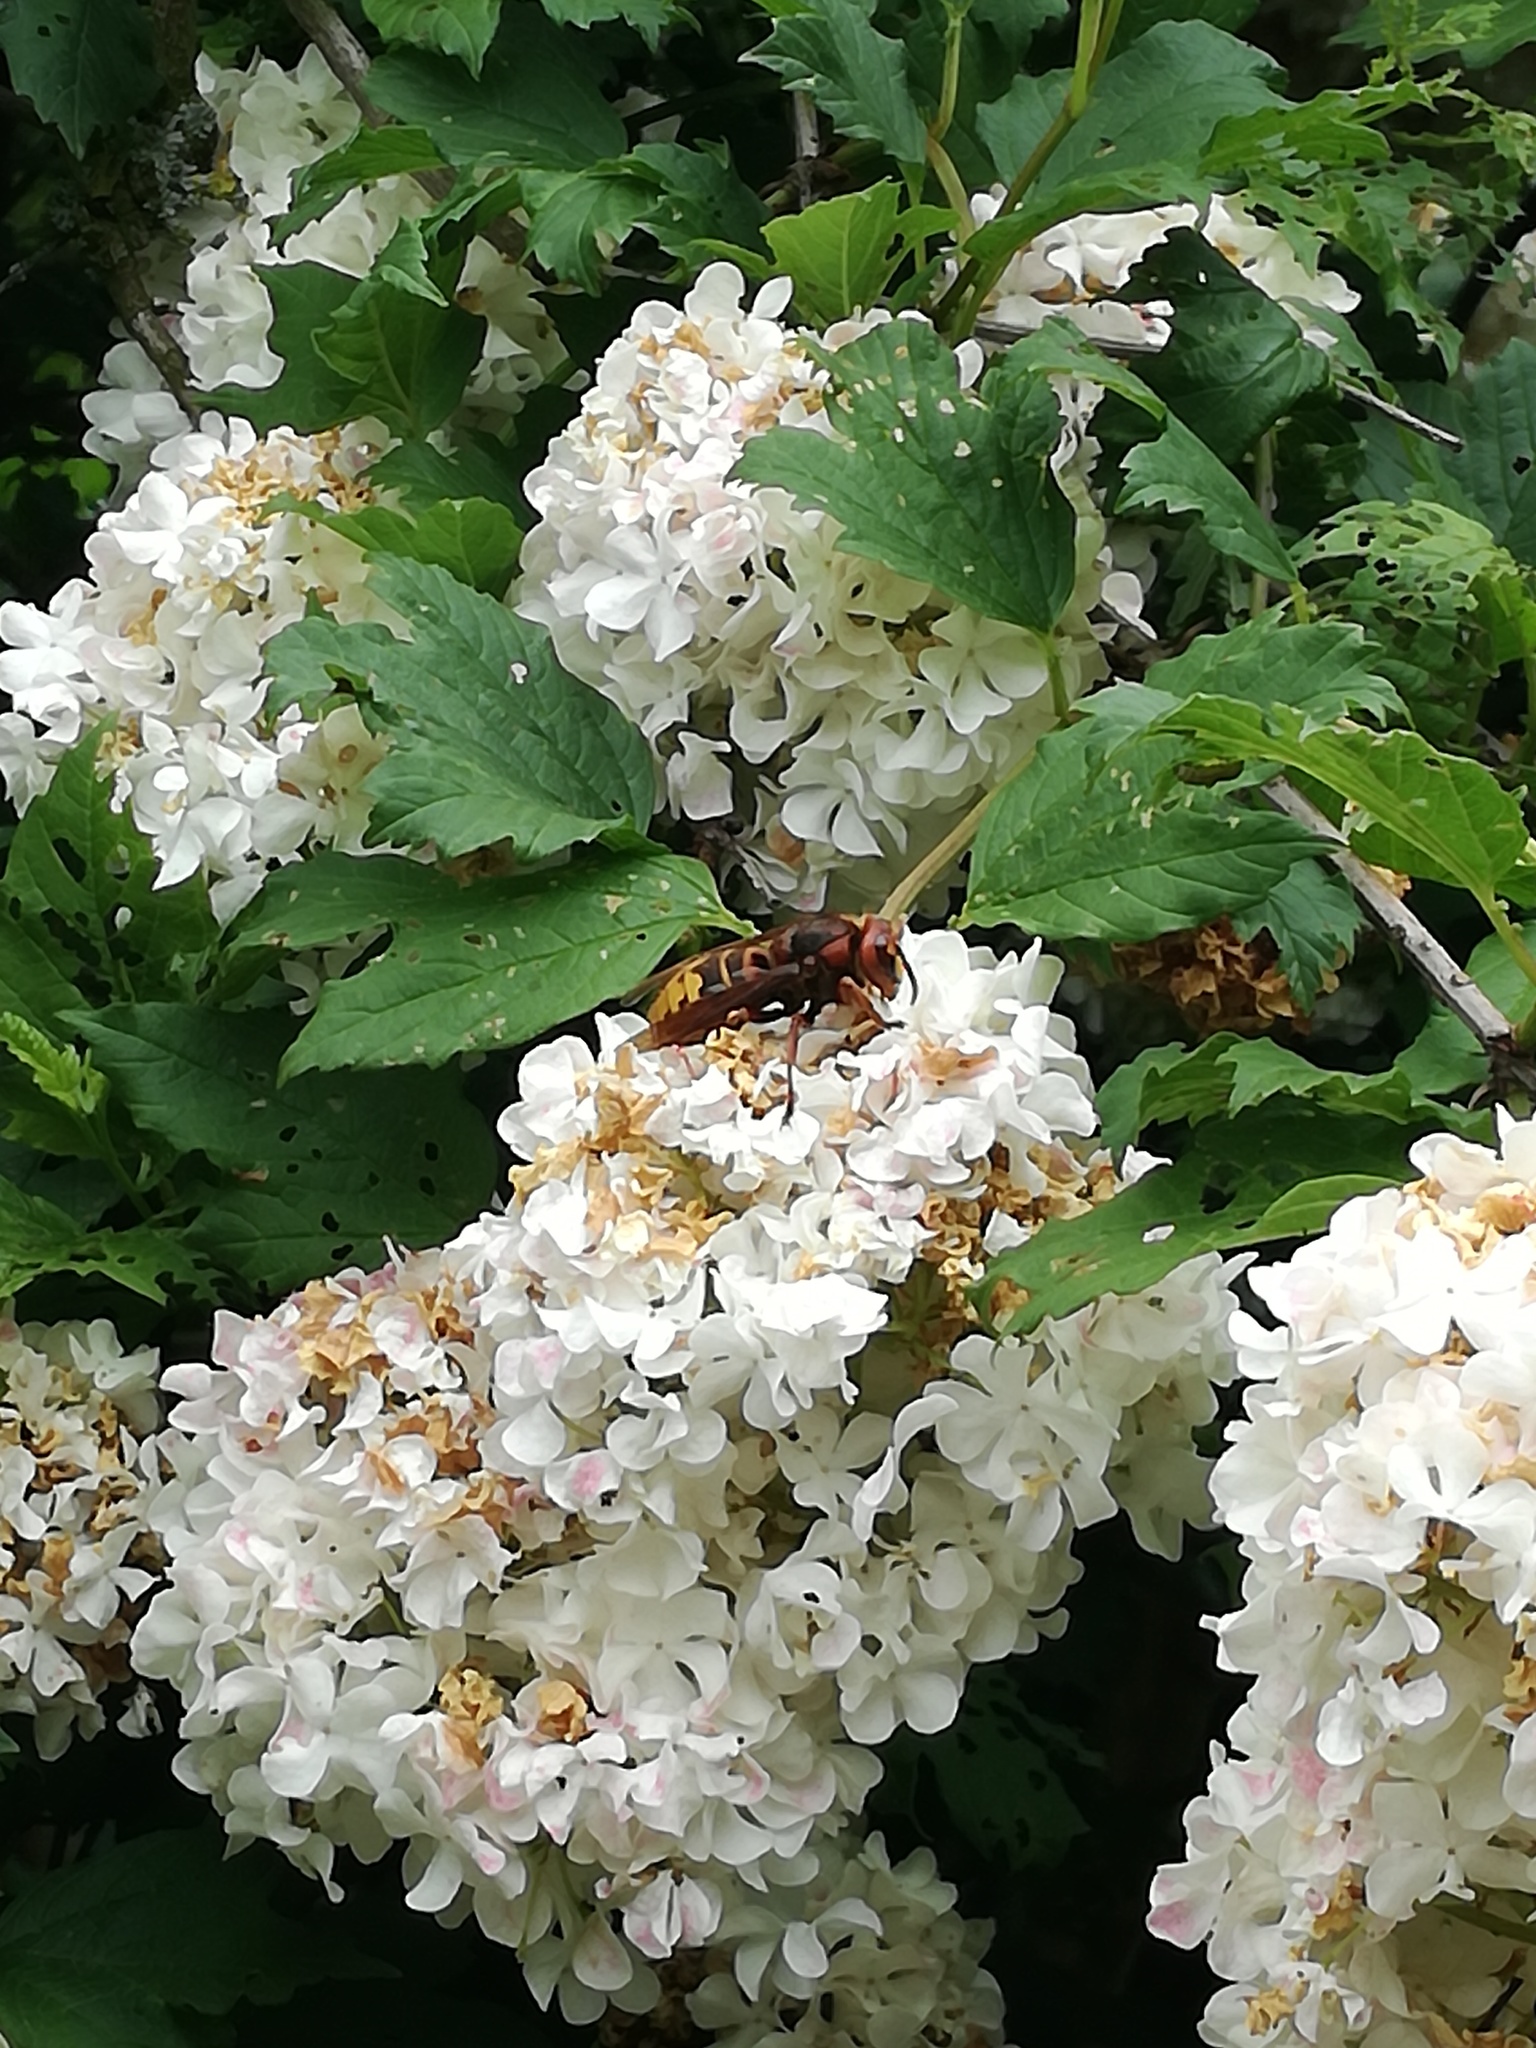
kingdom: Animalia
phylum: Arthropoda
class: Insecta
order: Hymenoptera
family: Vespidae
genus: Vespa
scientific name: Vespa crabro
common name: Hornet
